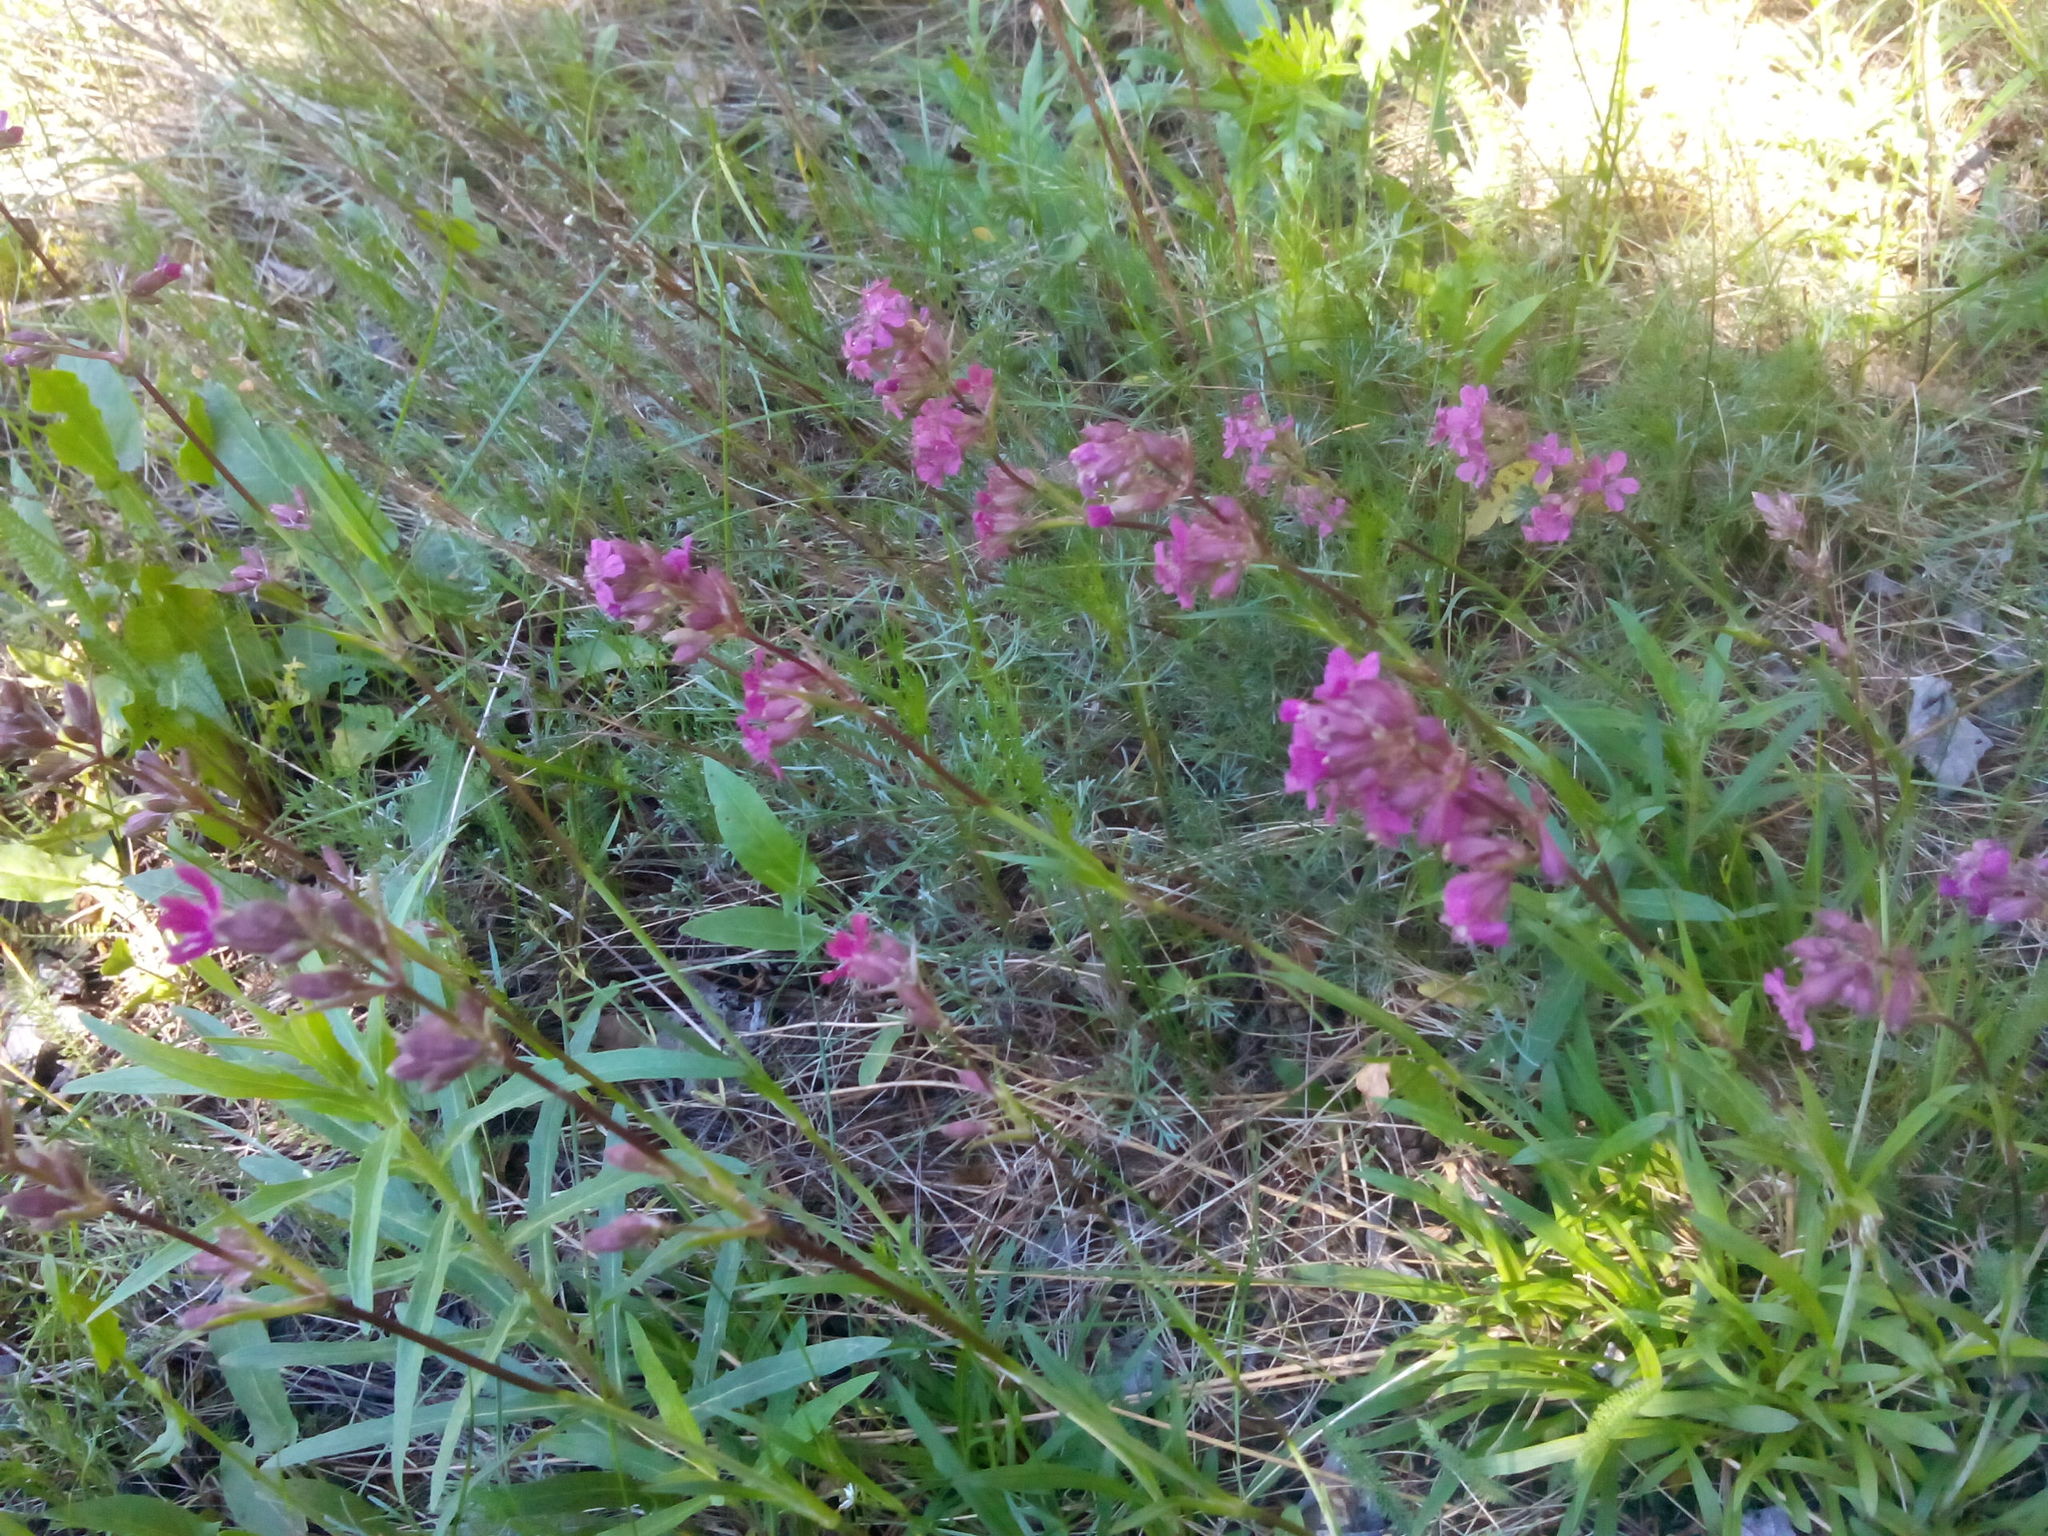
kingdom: Plantae
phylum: Tracheophyta
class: Magnoliopsida
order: Caryophyllales
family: Caryophyllaceae
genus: Viscaria
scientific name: Viscaria vulgaris
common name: Clammy campion
